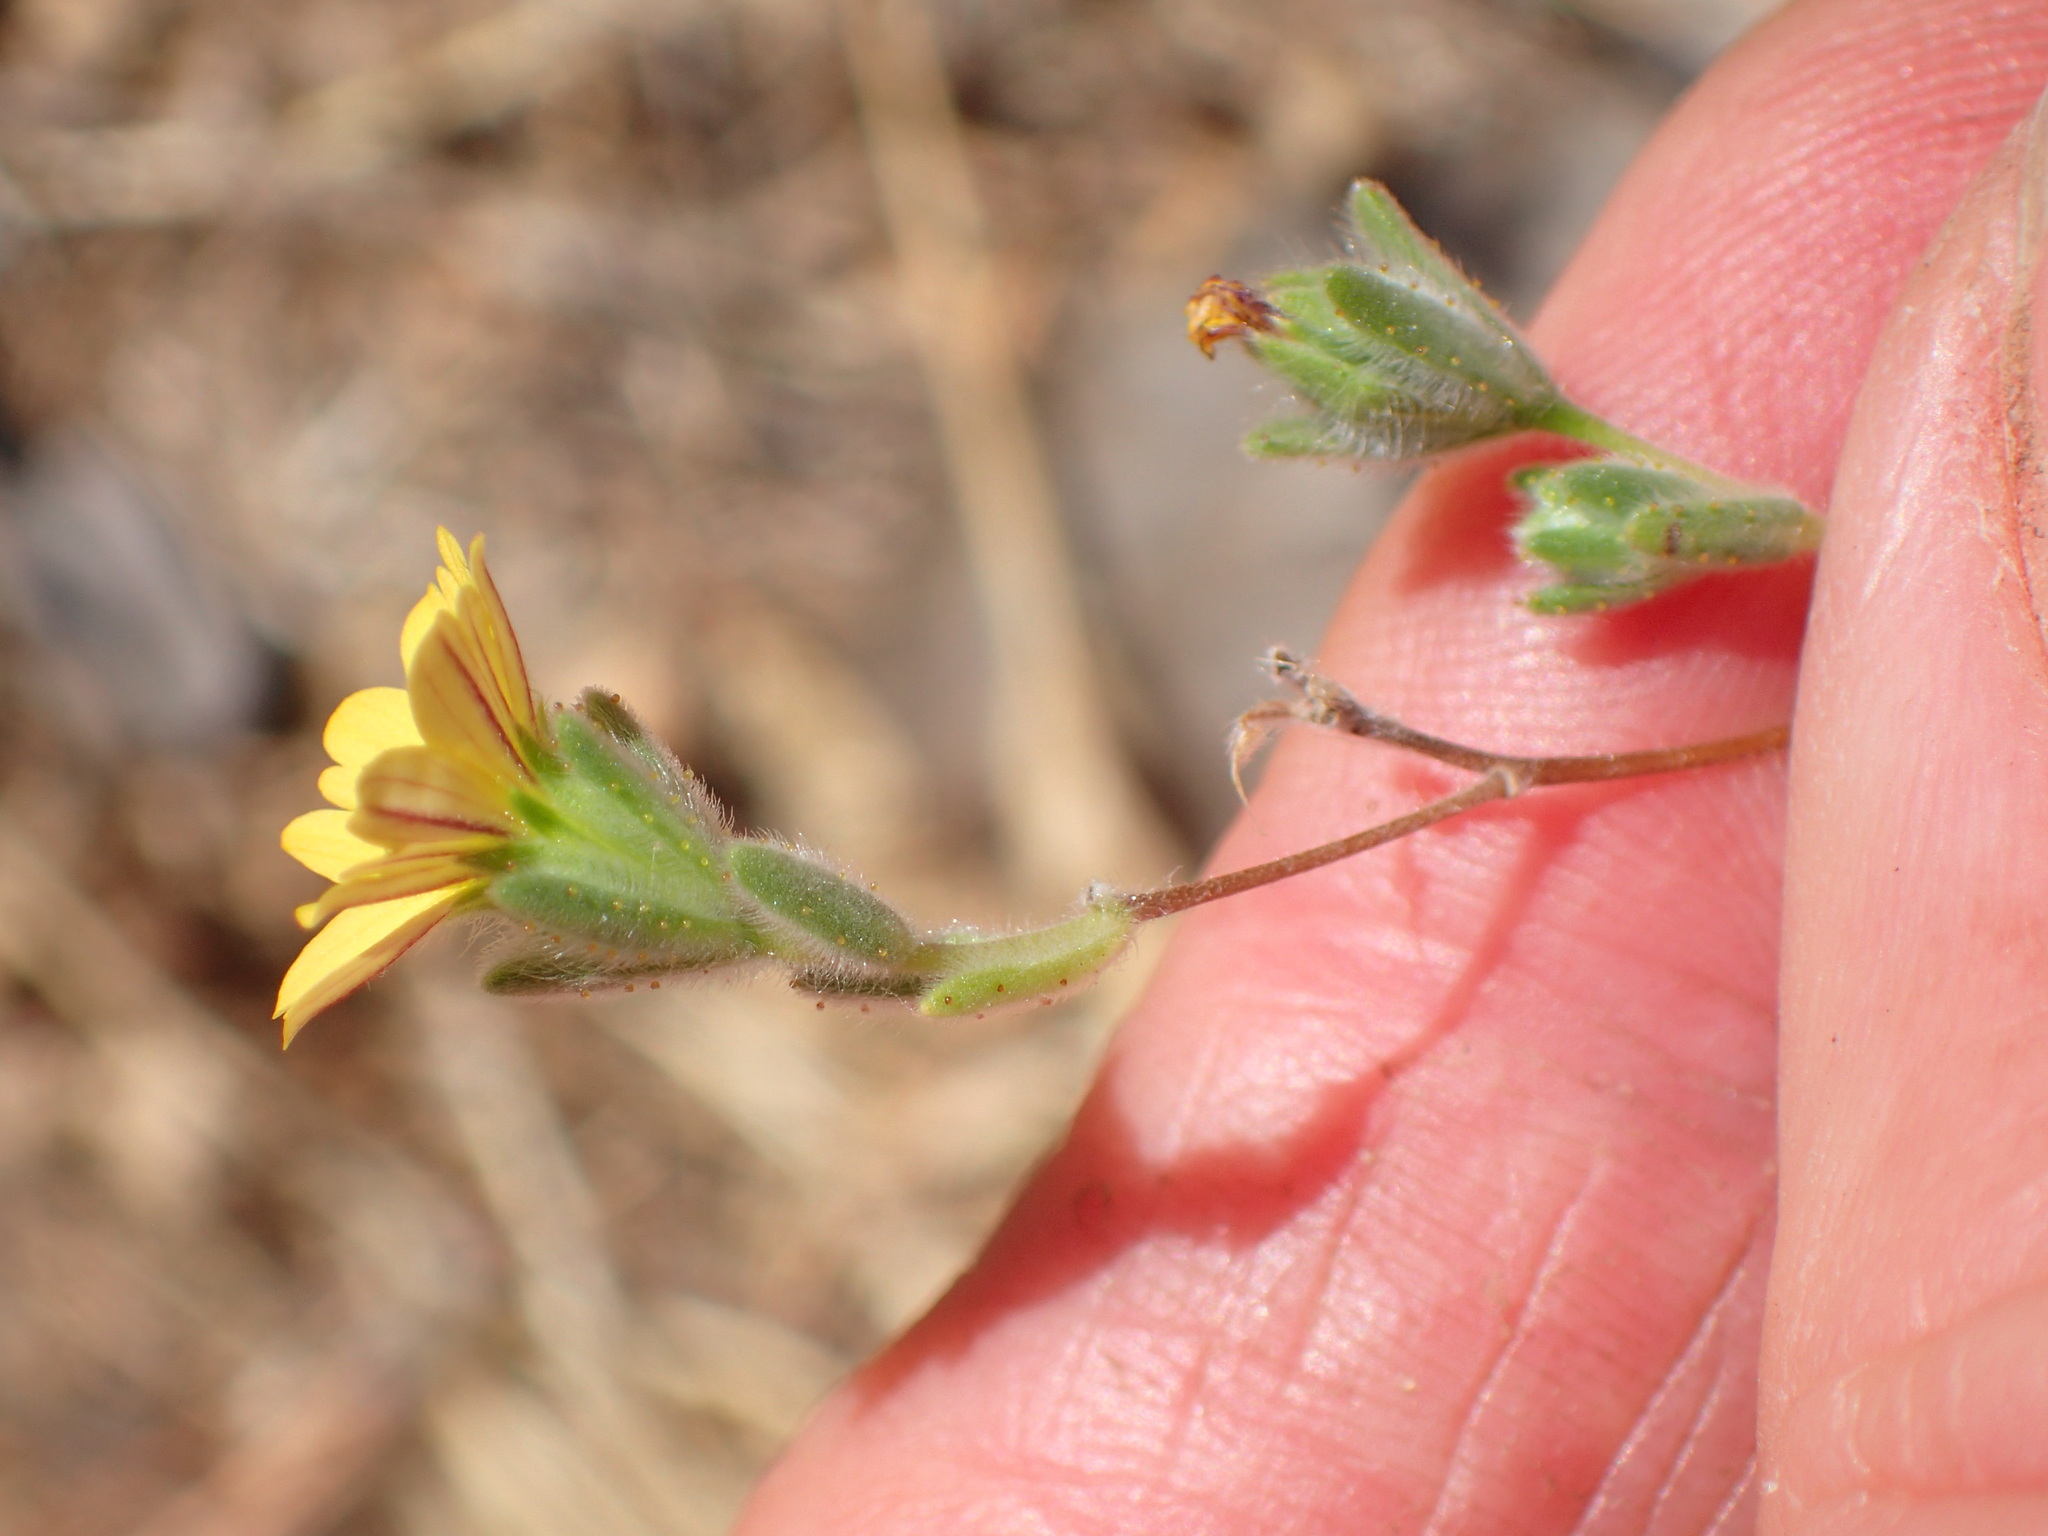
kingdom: Plantae
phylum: Tracheophyta
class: Magnoliopsida
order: Asterales
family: Asteraceae
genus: Lagophylla
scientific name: Lagophylla ramosissima
